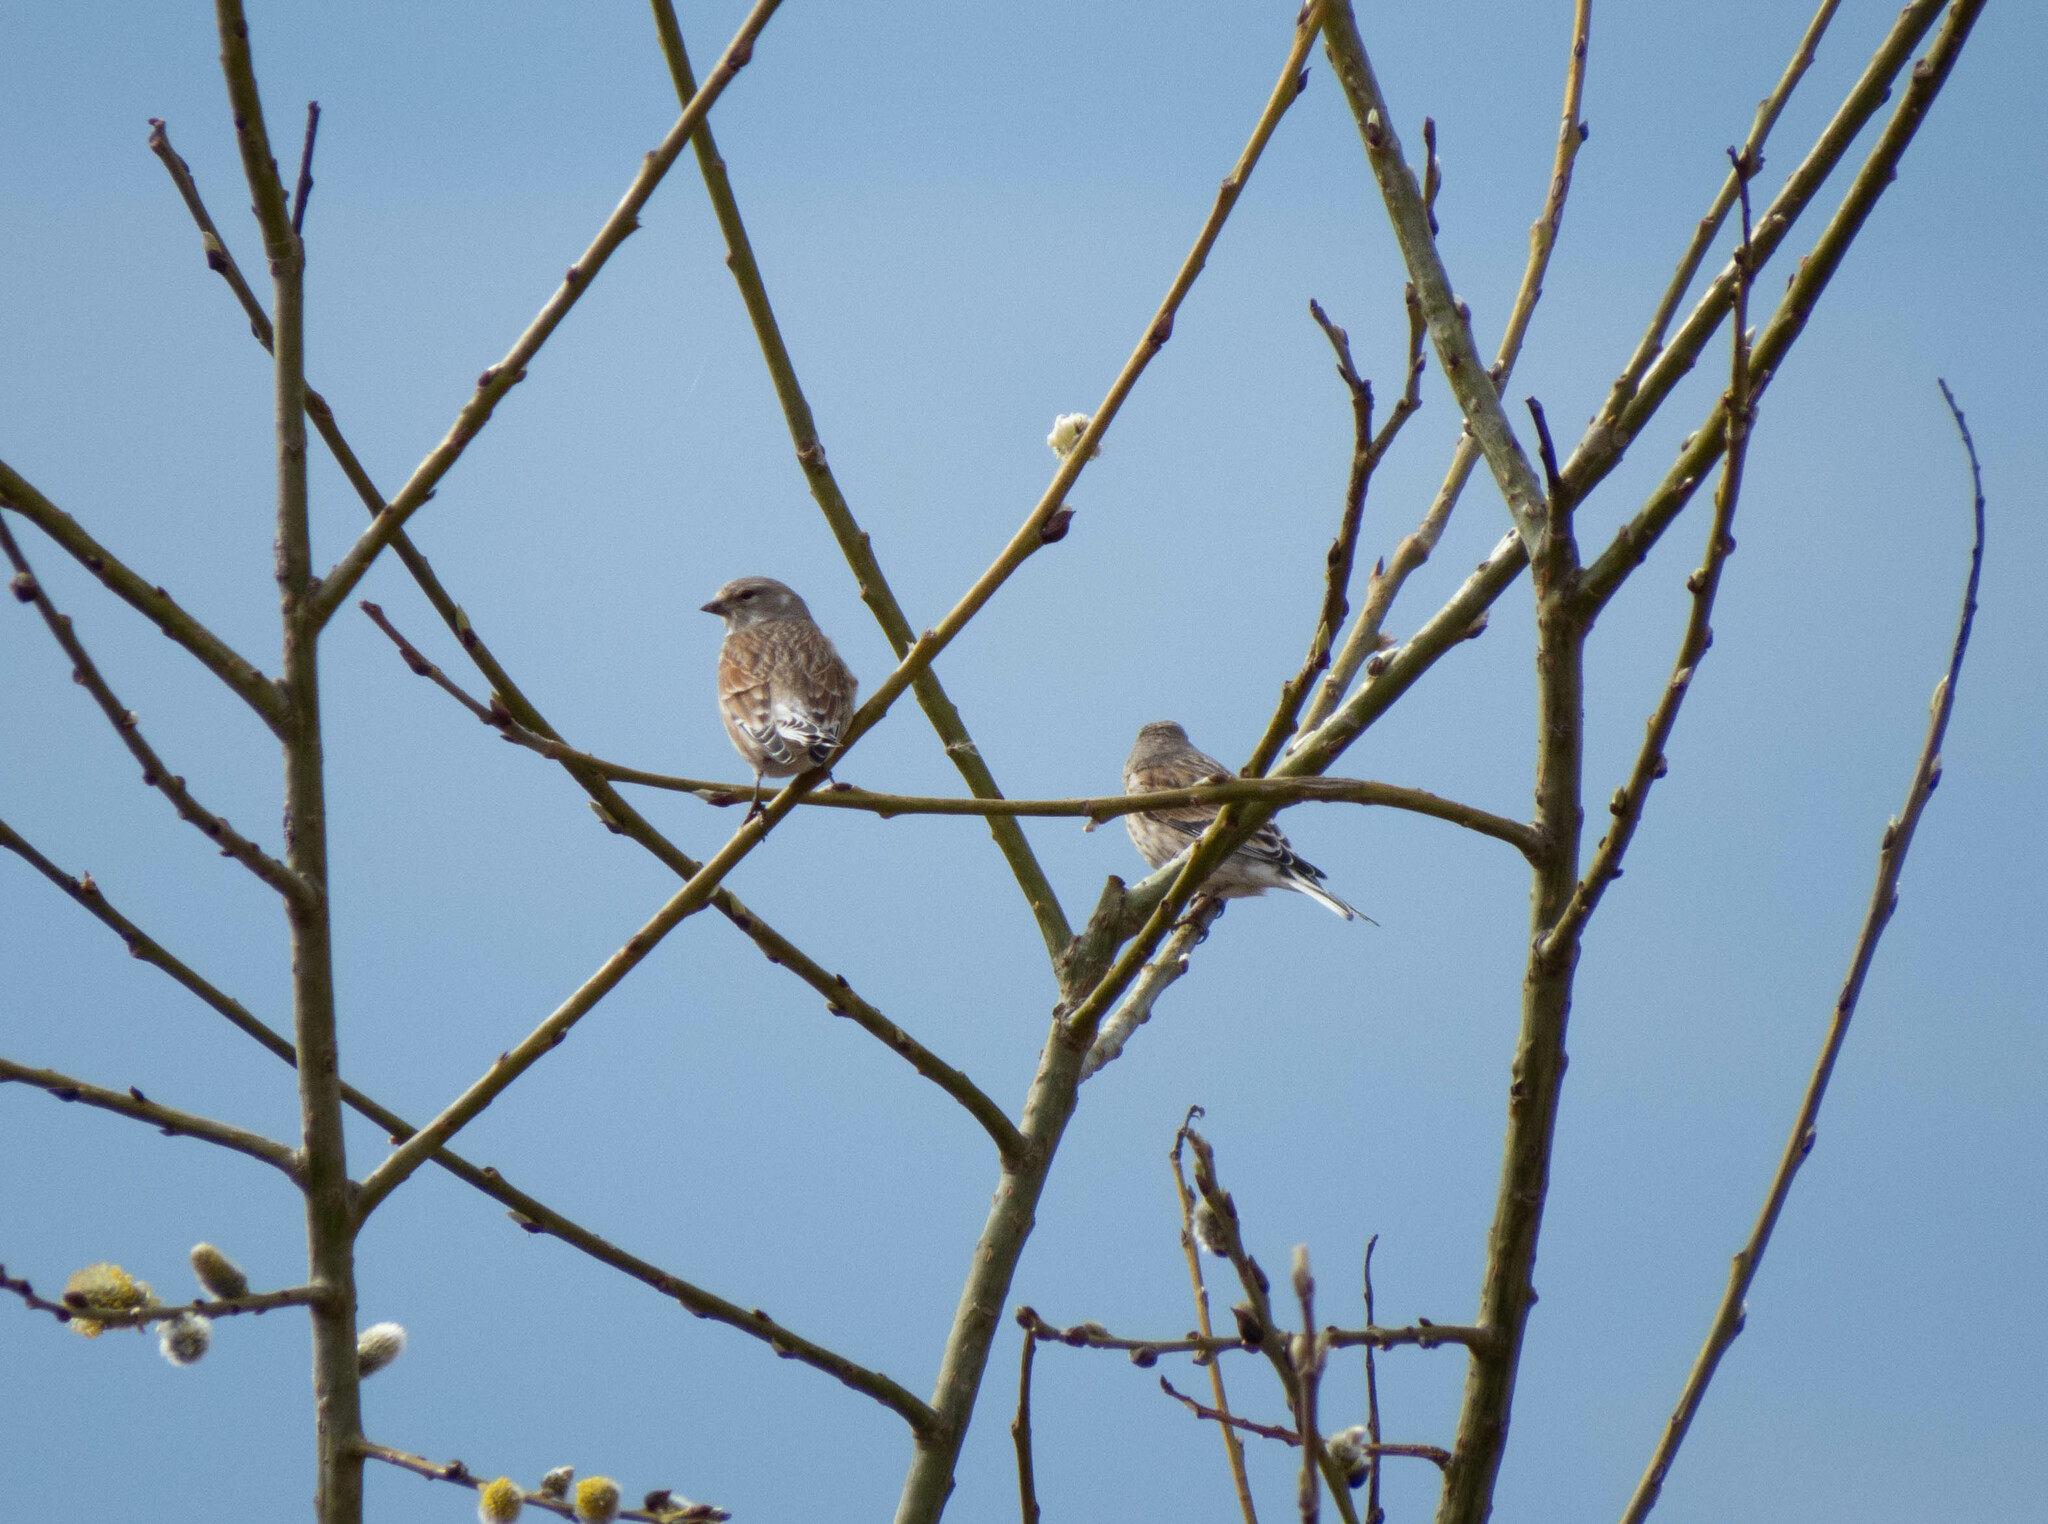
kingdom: Animalia
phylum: Chordata
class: Aves
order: Passeriformes
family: Fringillidae
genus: Linaria
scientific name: Linaria cannabina
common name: Common linnet
